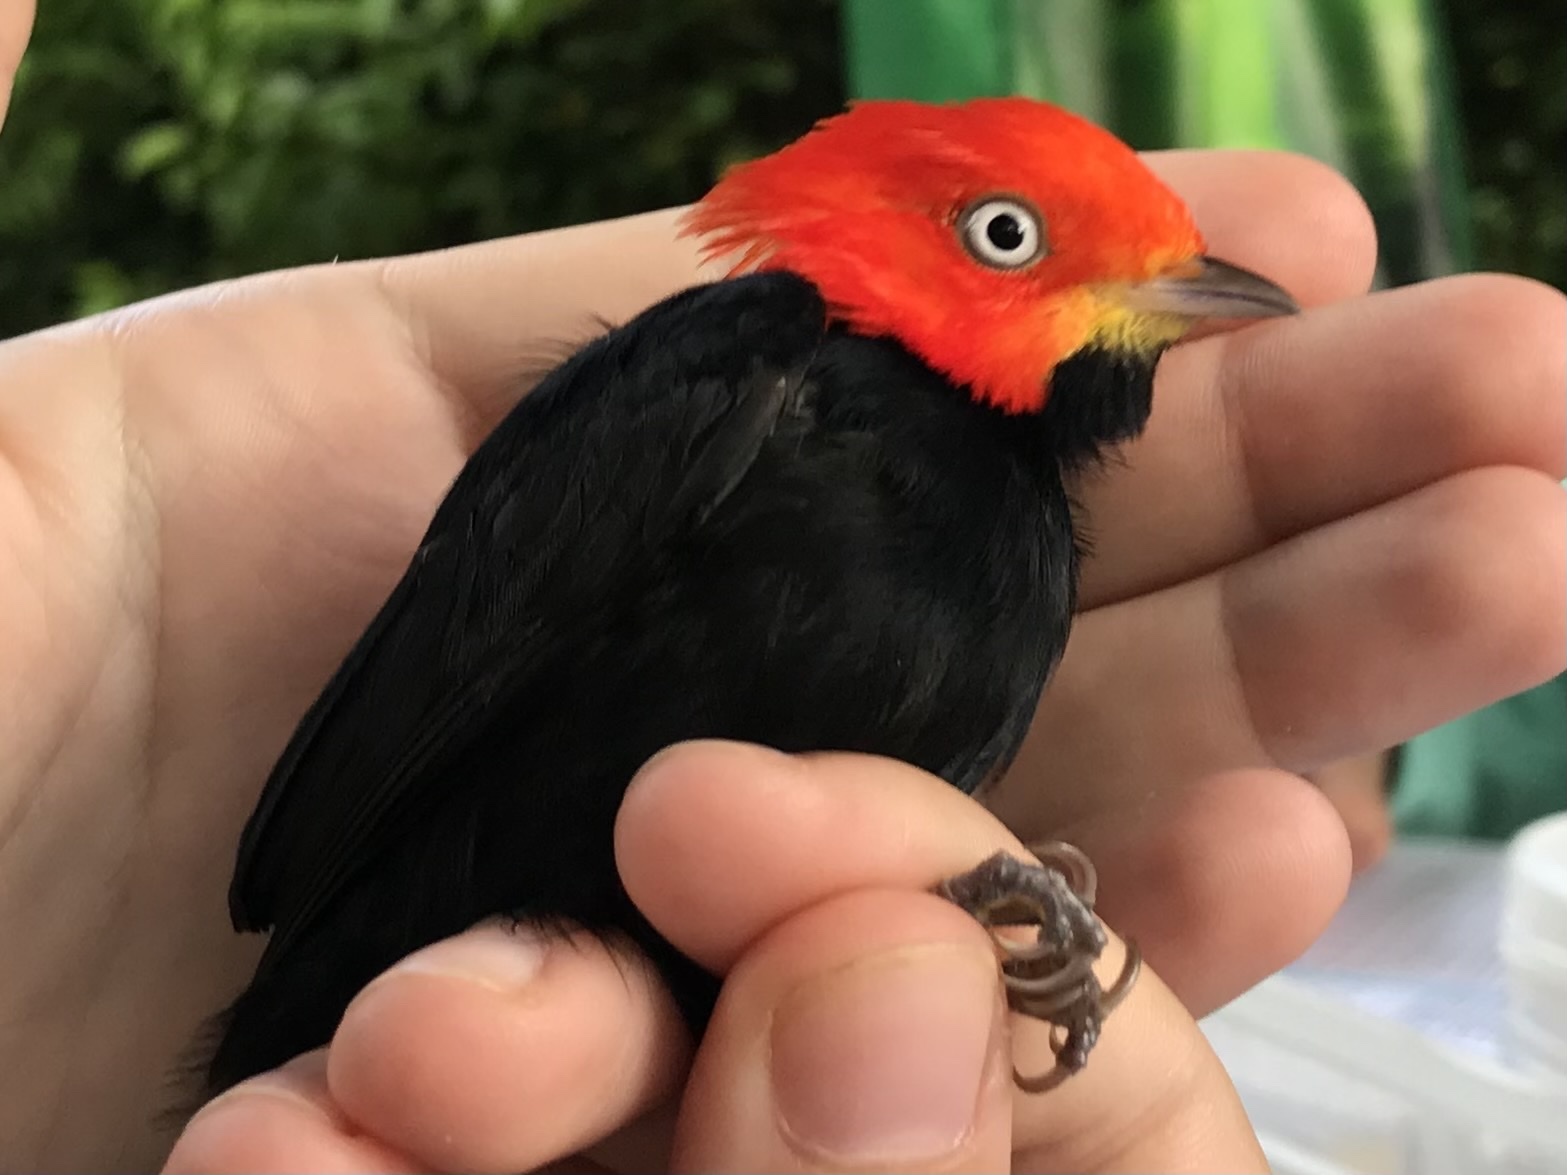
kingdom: Animalia
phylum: Chordata
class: Aves
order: Passeriformes
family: Pipridae
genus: Pipra
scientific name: Pipra mentalis
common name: Red-capped manakin
